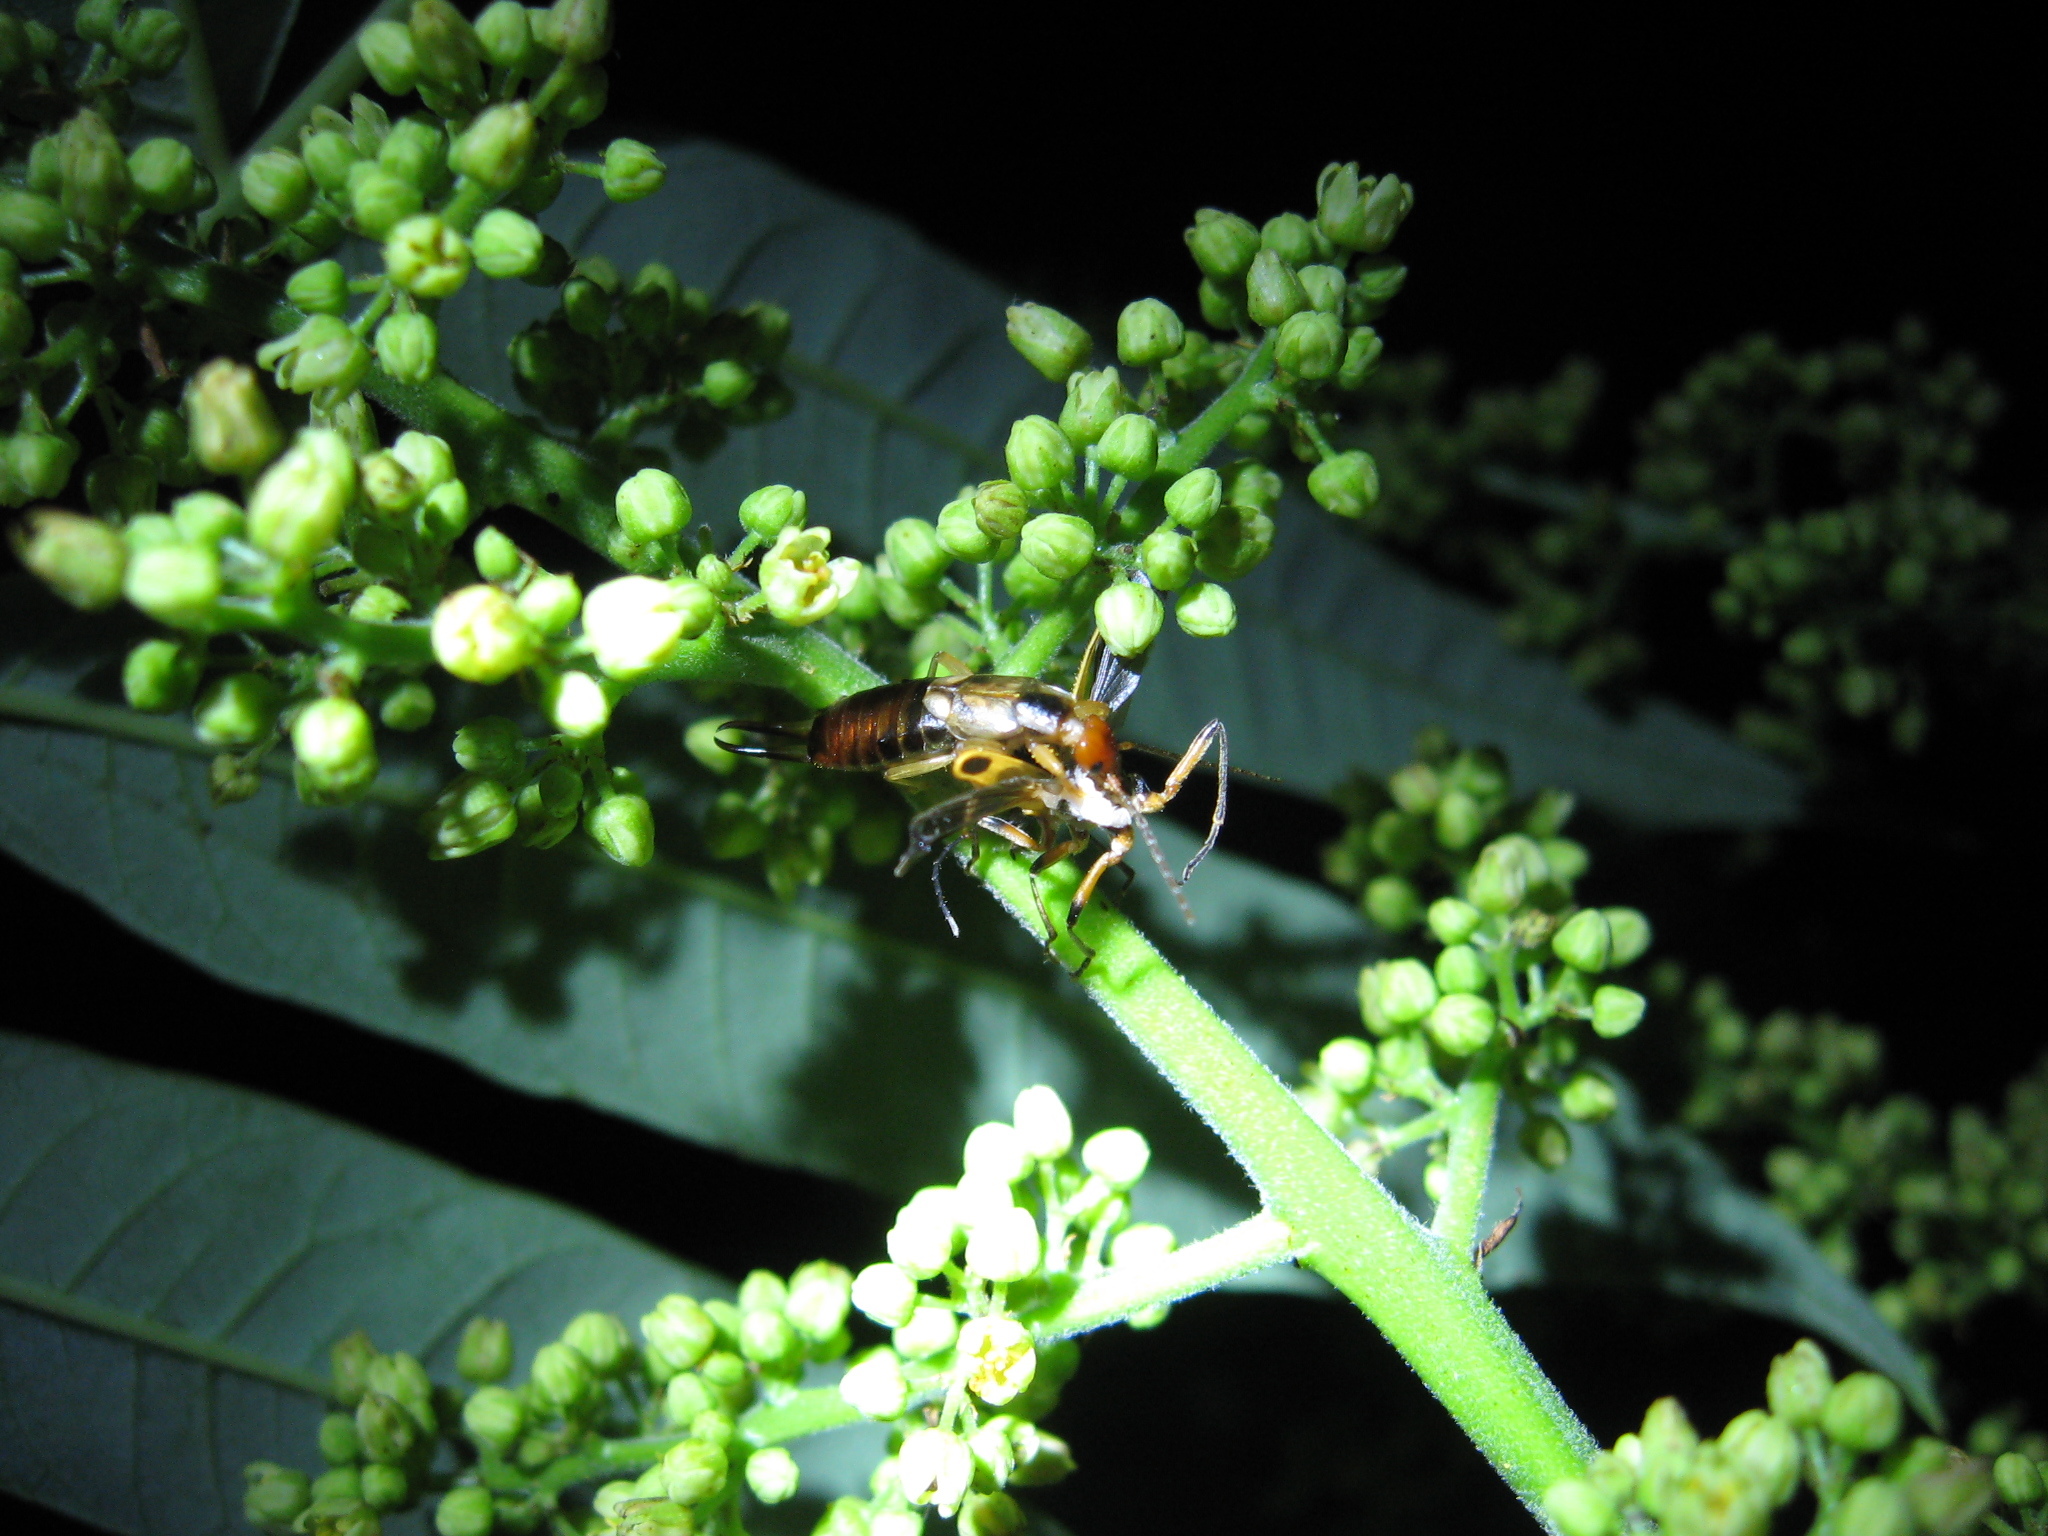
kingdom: Animalia
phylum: Arthropoda
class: Insecta
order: Dermaptera
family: Forficulidae
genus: Forficula
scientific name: Forficula
